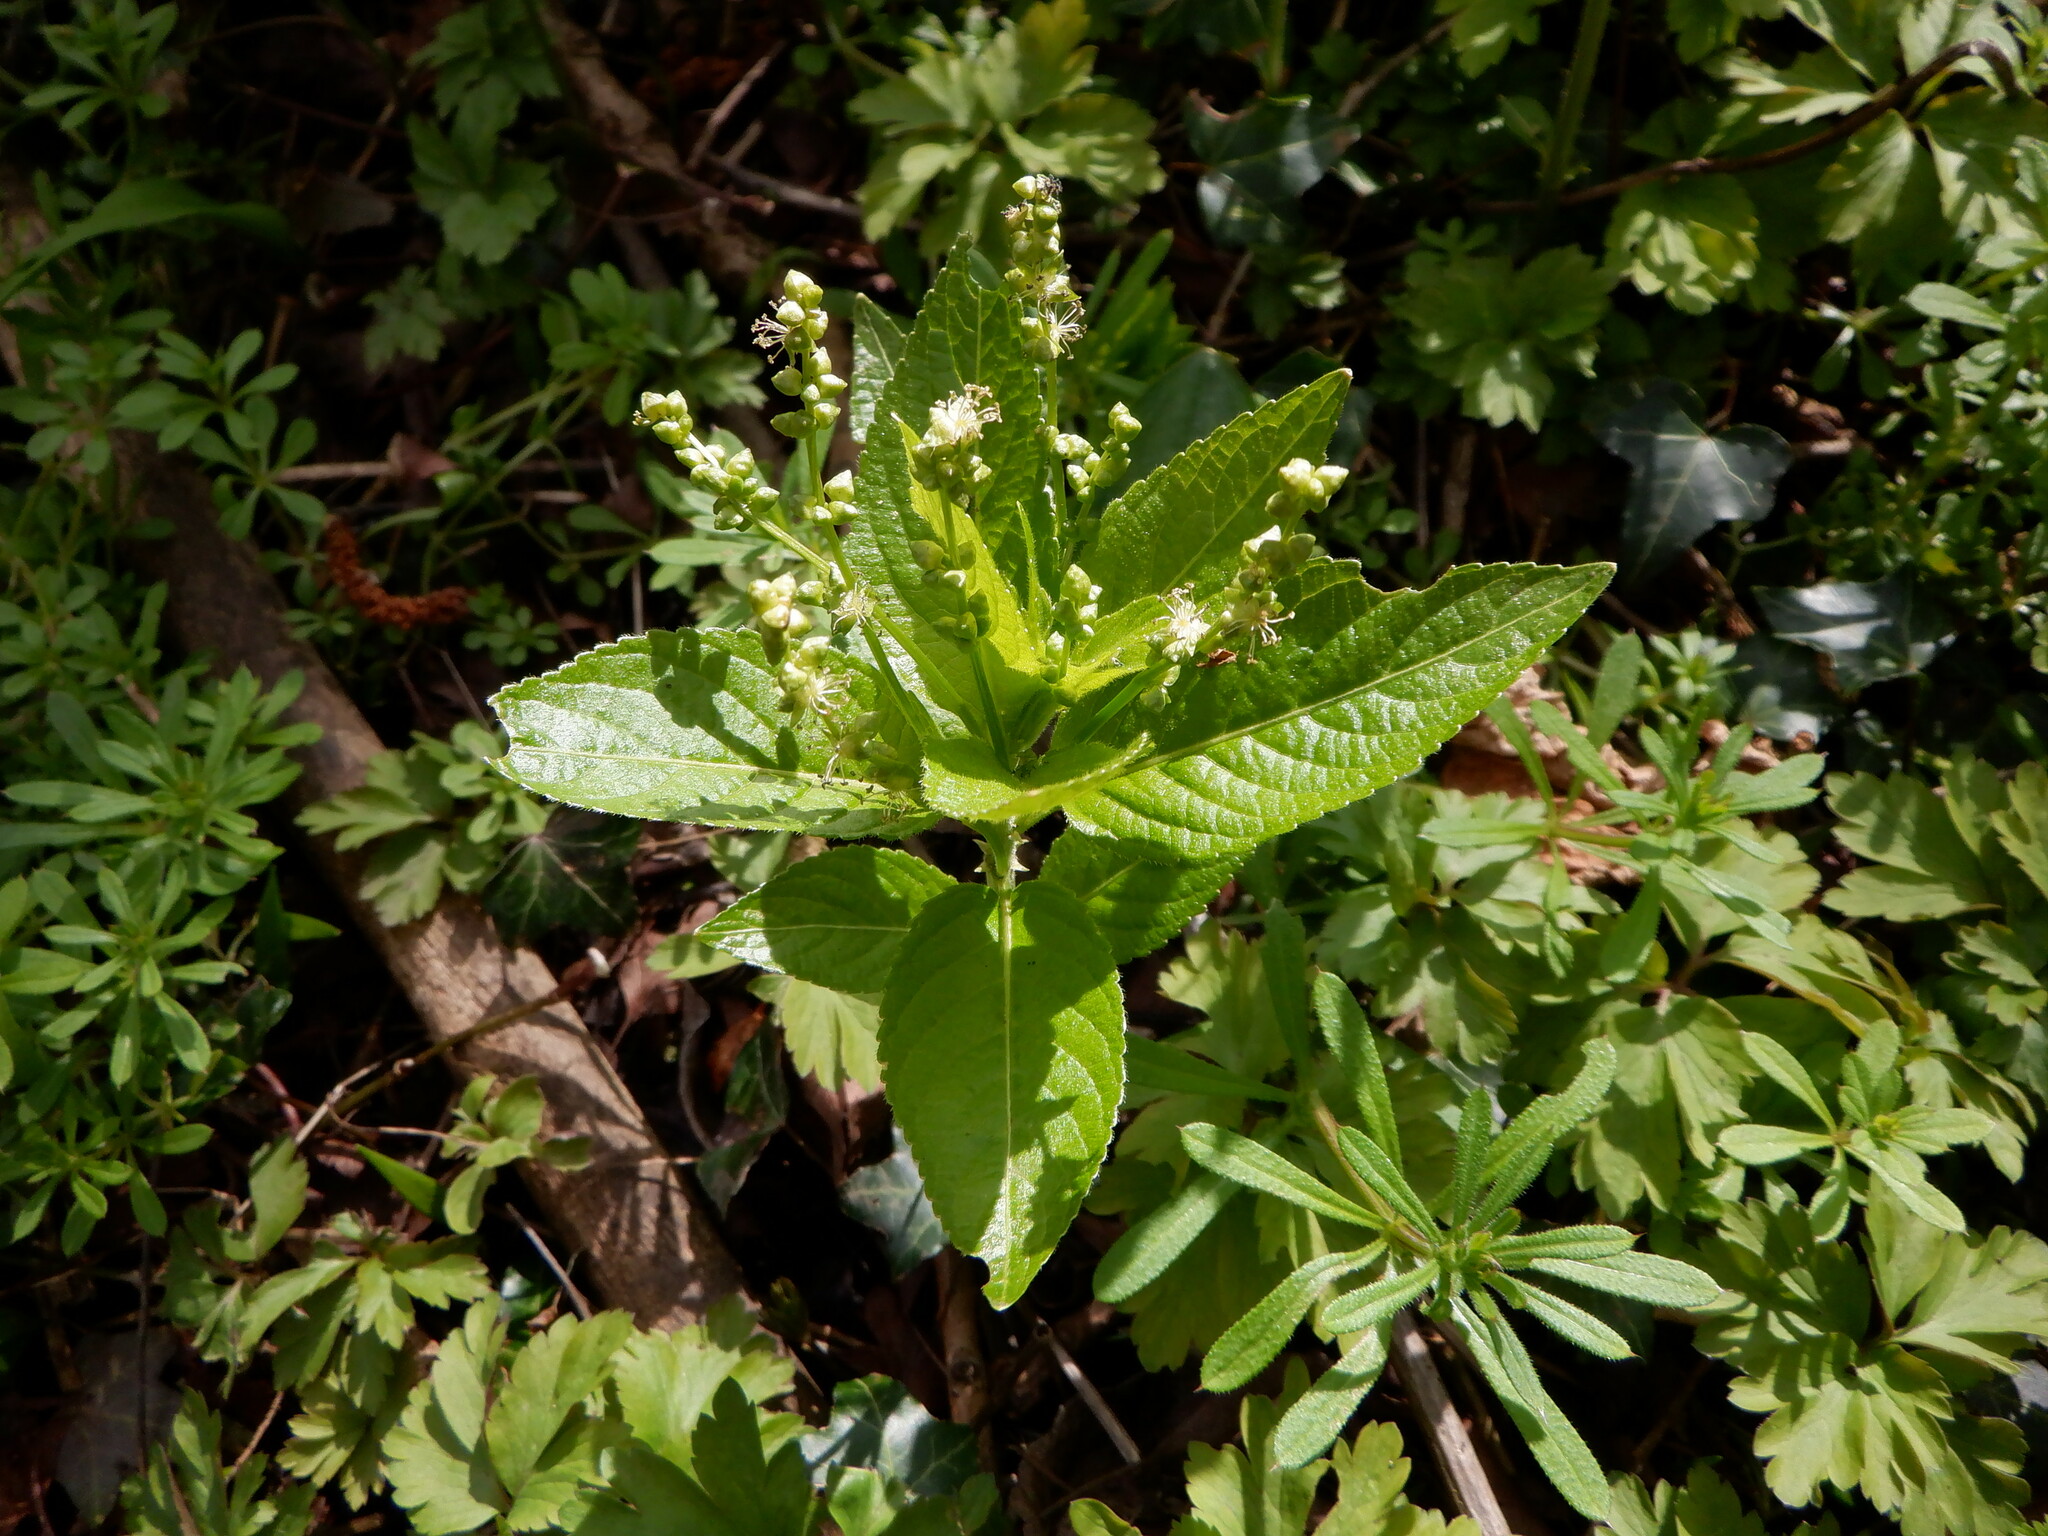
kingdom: Plantae
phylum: Tracheophyta
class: Magnoliopsida
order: Malpighiales
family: Euphorbiaceae
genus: Mercurialis
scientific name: Mercurialis perennis
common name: Dog mercury
